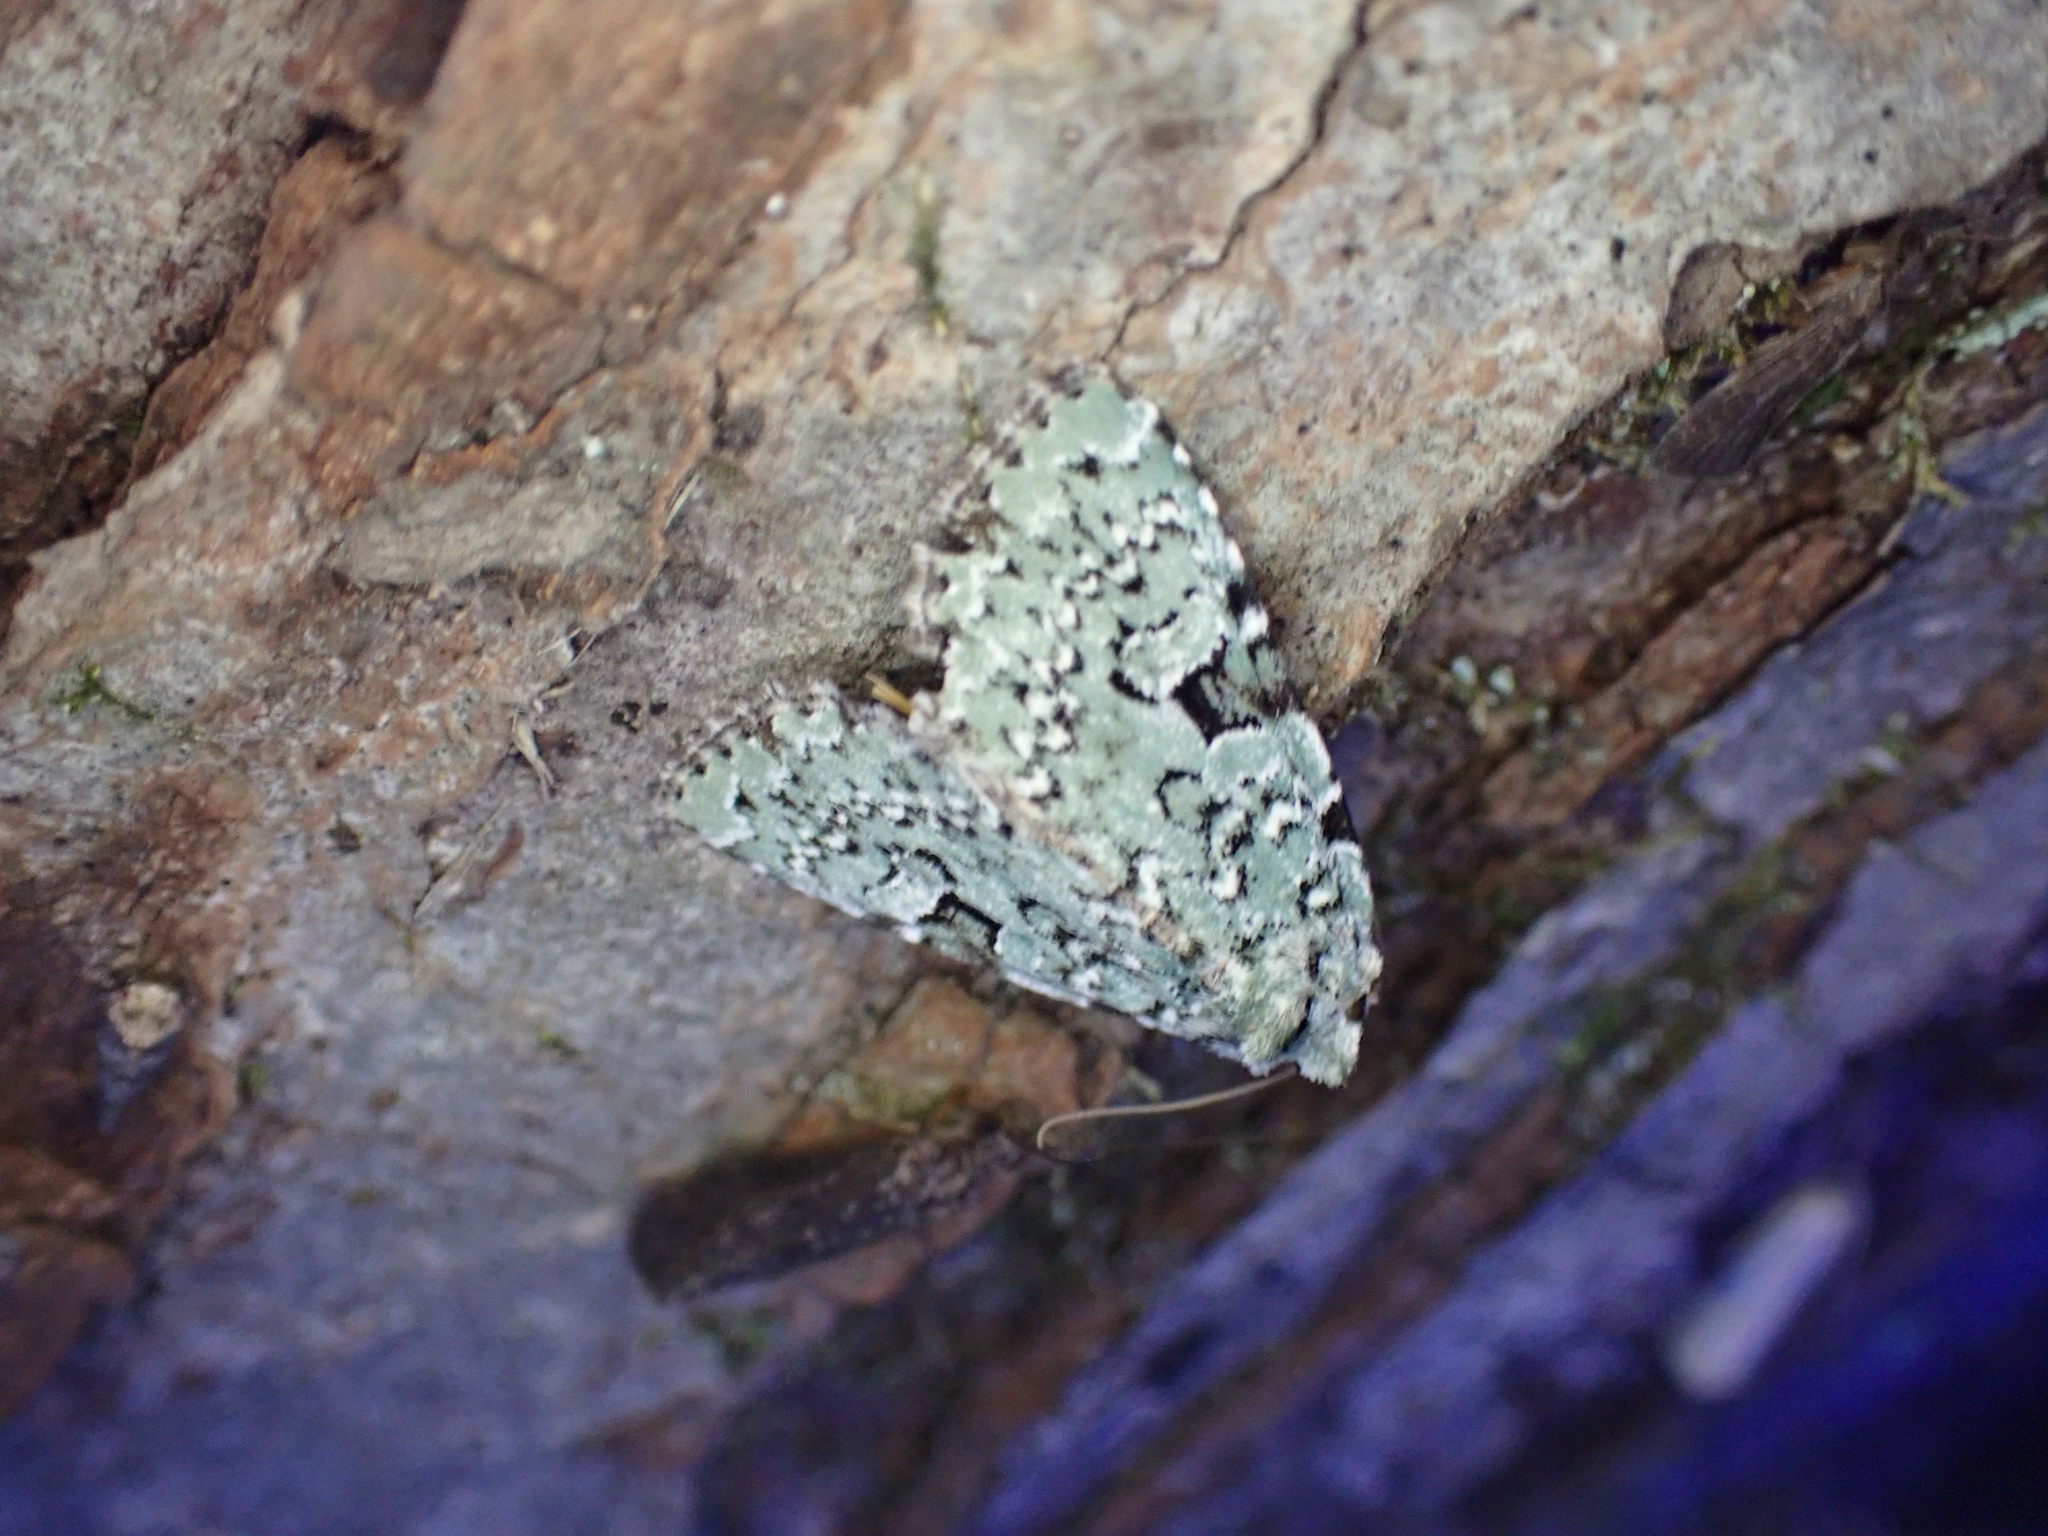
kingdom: Animalia
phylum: Arthropoda
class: Insecta
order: Lepidoptera
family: Noctuidae
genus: Leuconycta
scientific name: Leuconycta diphteroides
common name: Green leuconycta moth
